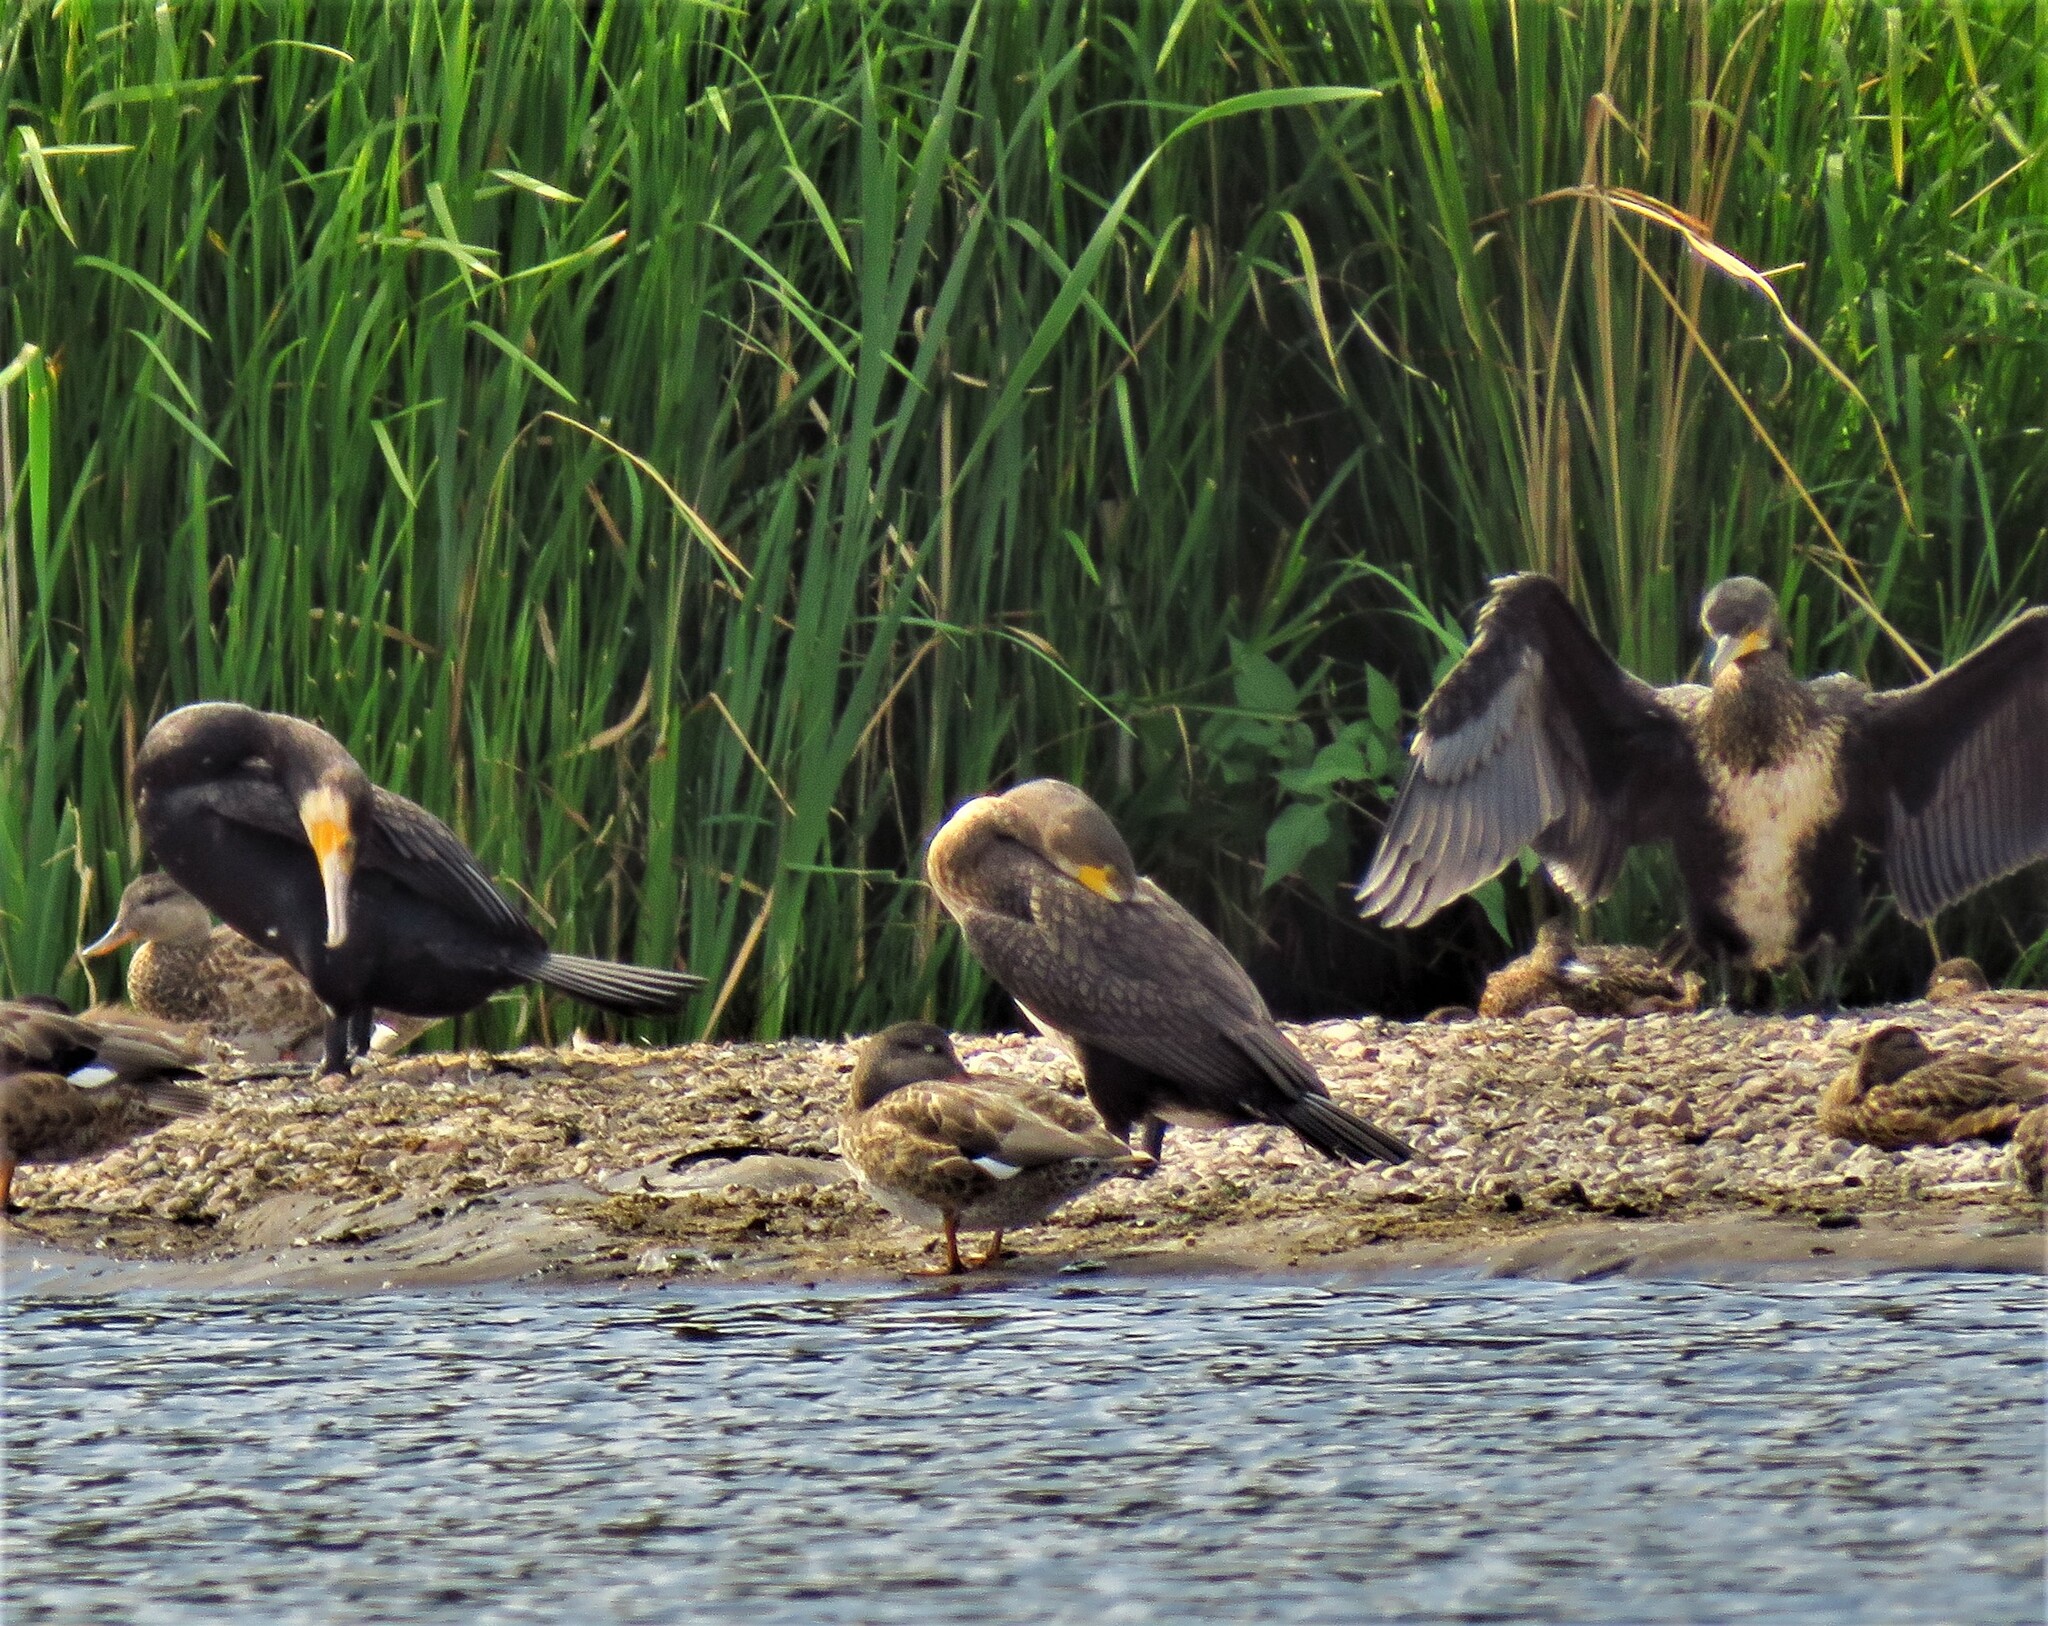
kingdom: Animalia
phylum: Chordata
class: Aves
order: Suliformes
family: Phalacrocoracidae
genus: Phalacrocorax
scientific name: Phalacrocorax carbo
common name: Great cormorant
